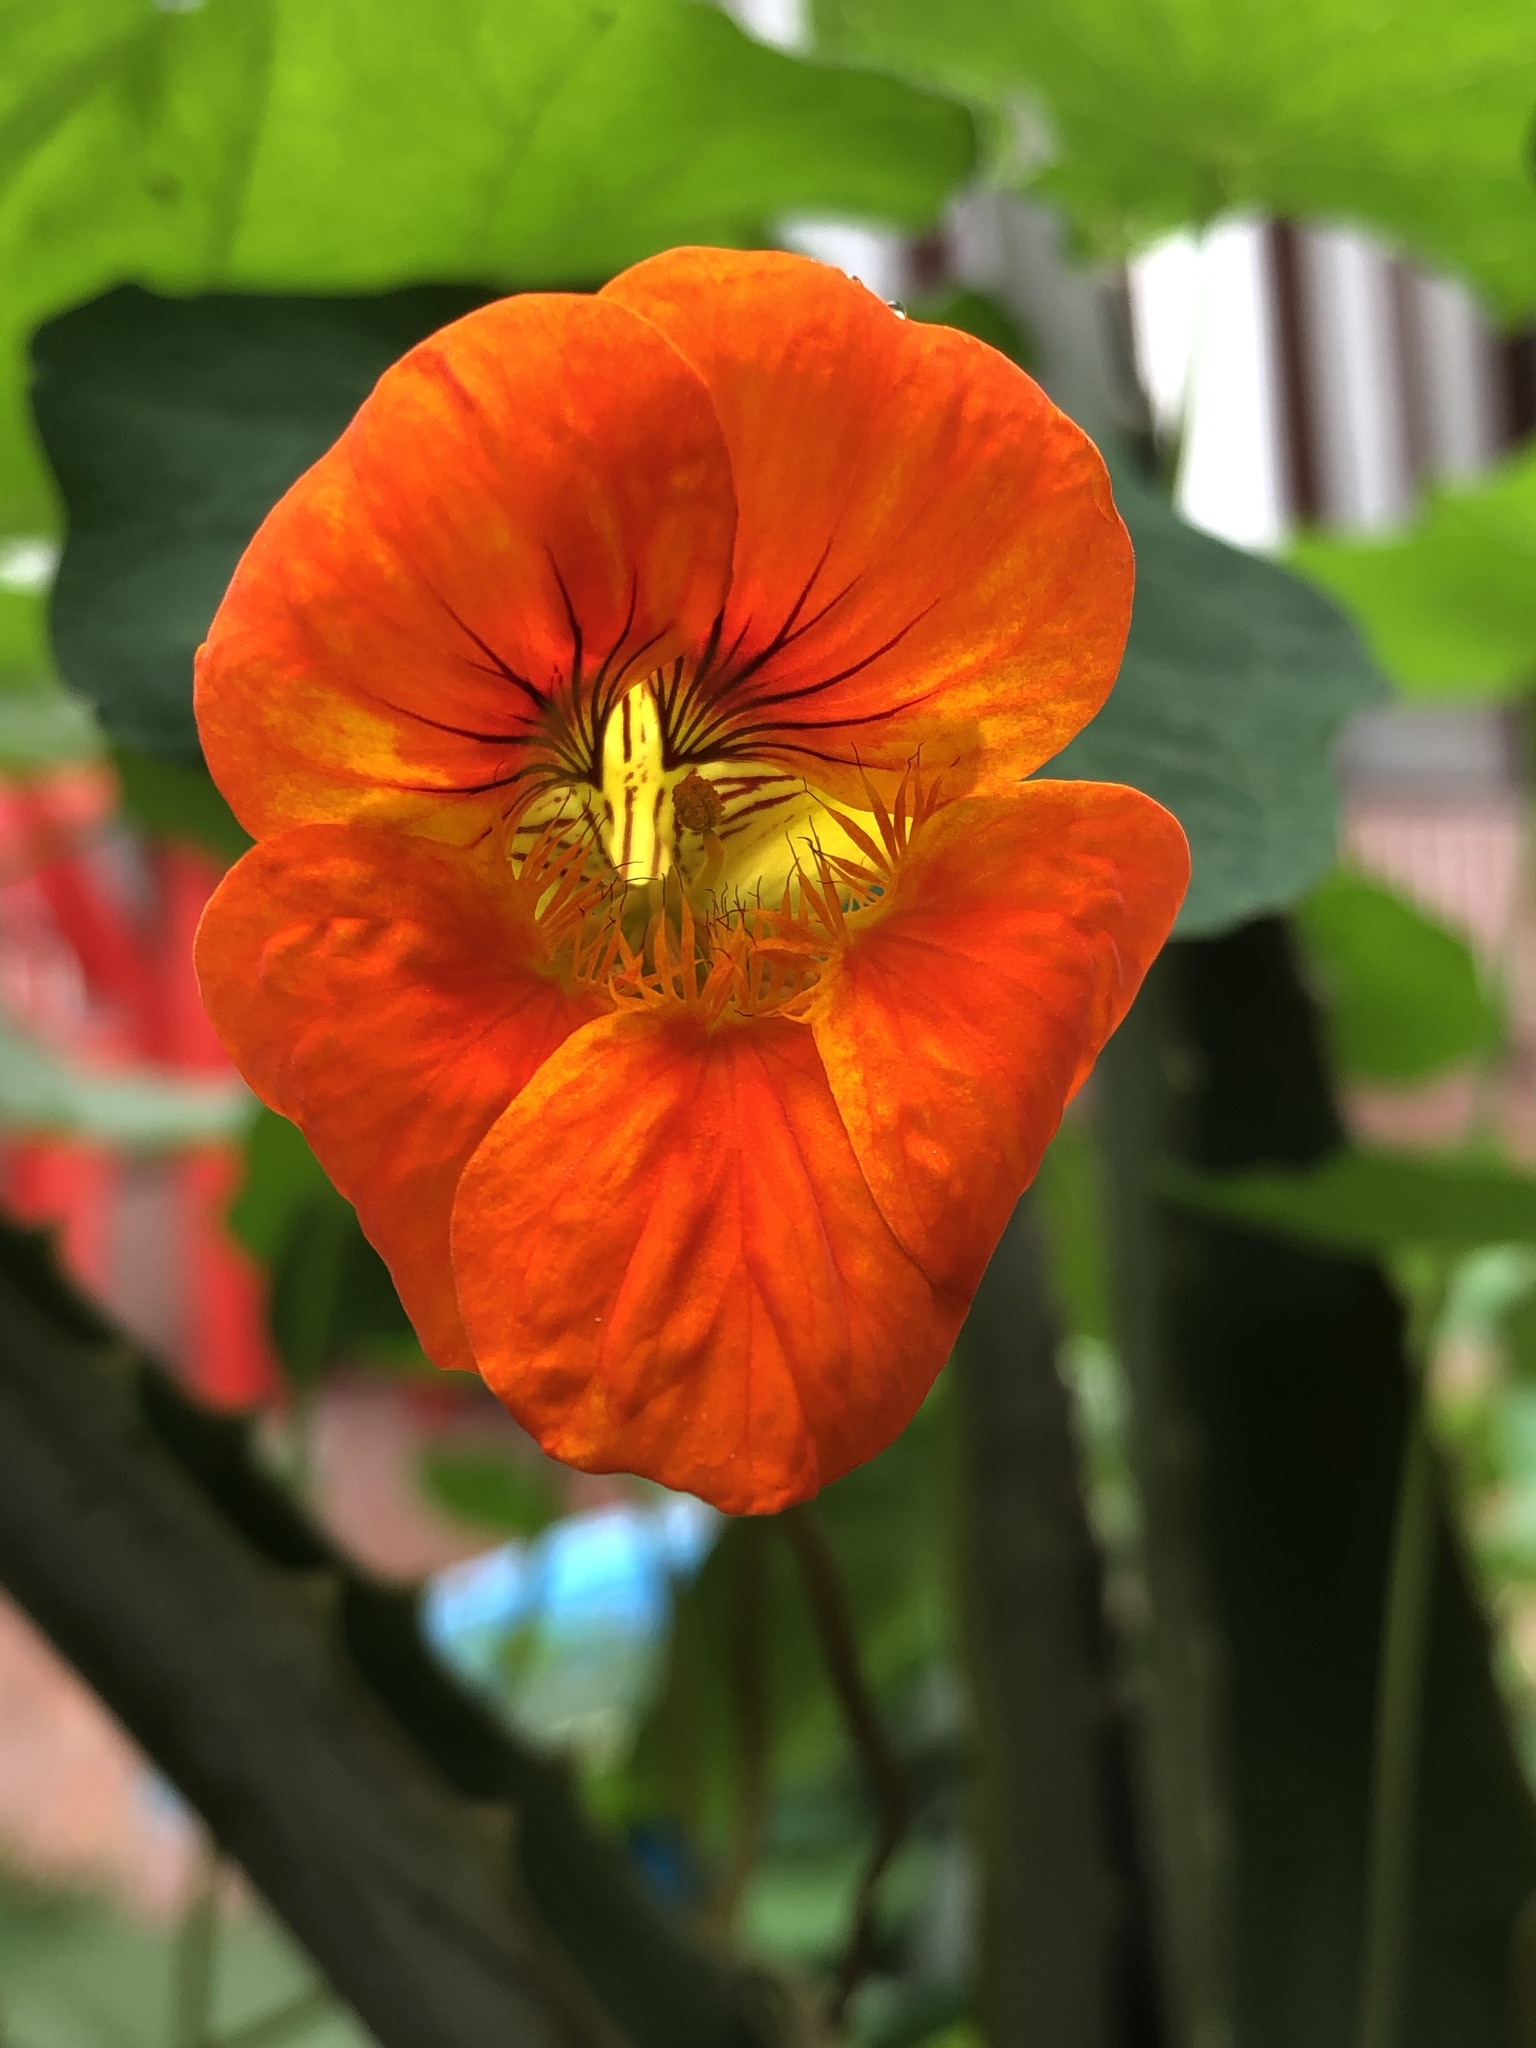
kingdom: Plantae
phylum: Tracheophyta
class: Magnoliopsida
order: Brassicales
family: Tropaeolaceae
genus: Tropaeolum
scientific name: Tropaeolum majus
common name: Nasturtium
